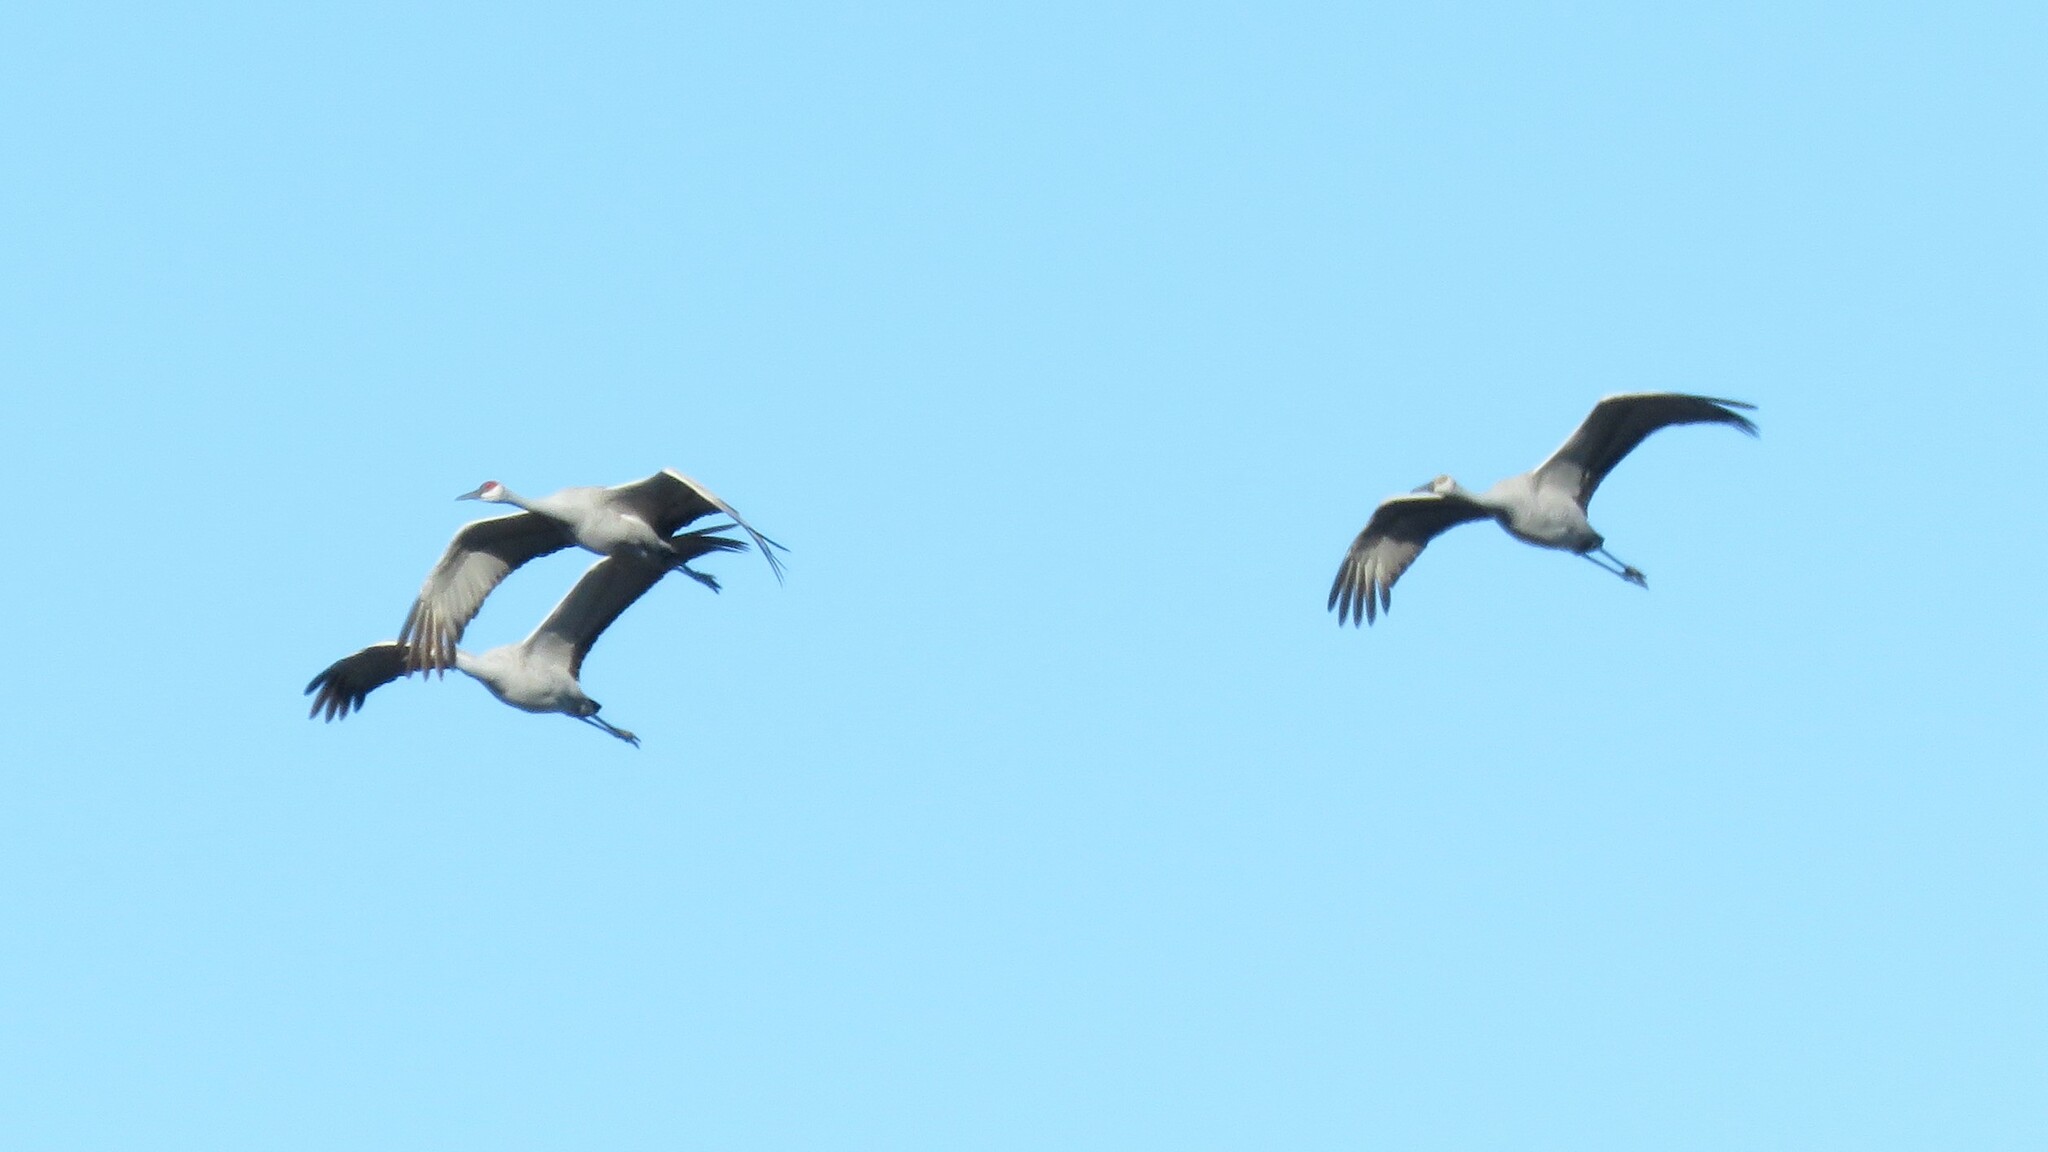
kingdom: Animalia
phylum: Chordata
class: Aves
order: Gruiformes
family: Gruidae
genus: Grus
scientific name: Grus canadensis
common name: Sandhill crane
